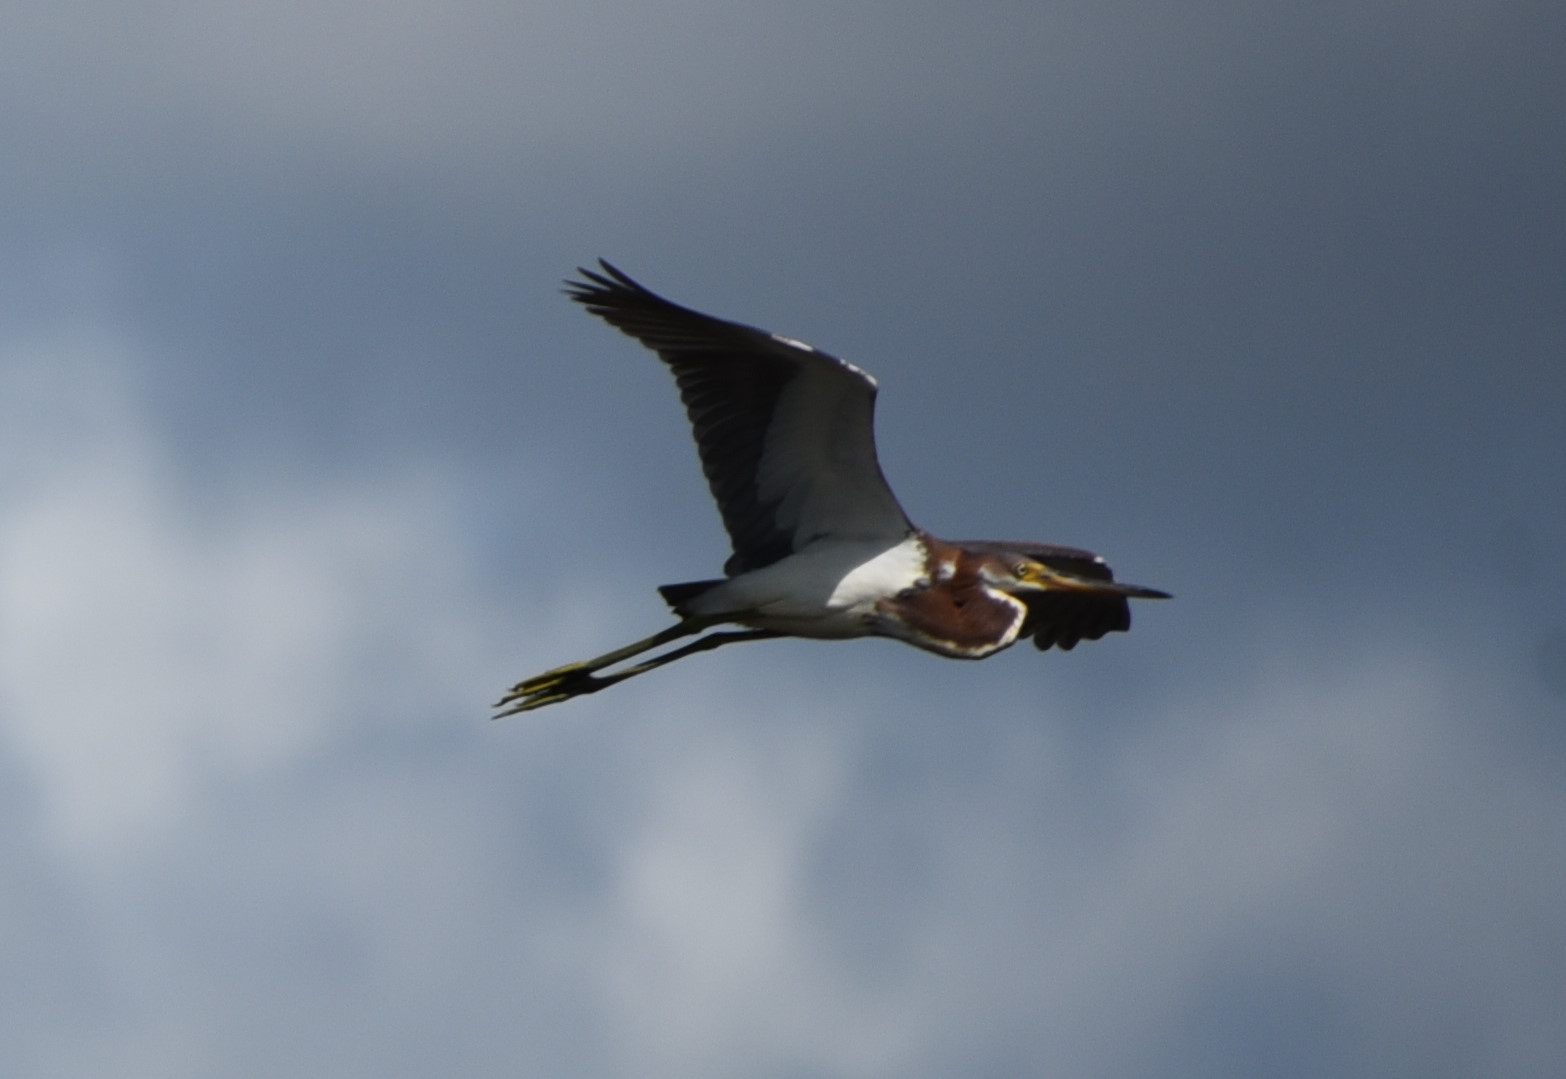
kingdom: Animalia
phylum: Chordata
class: Aves
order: Pelecaniformes
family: Ardeidae
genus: Egretta
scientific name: Egretta tricolor
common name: Tricolored heron
